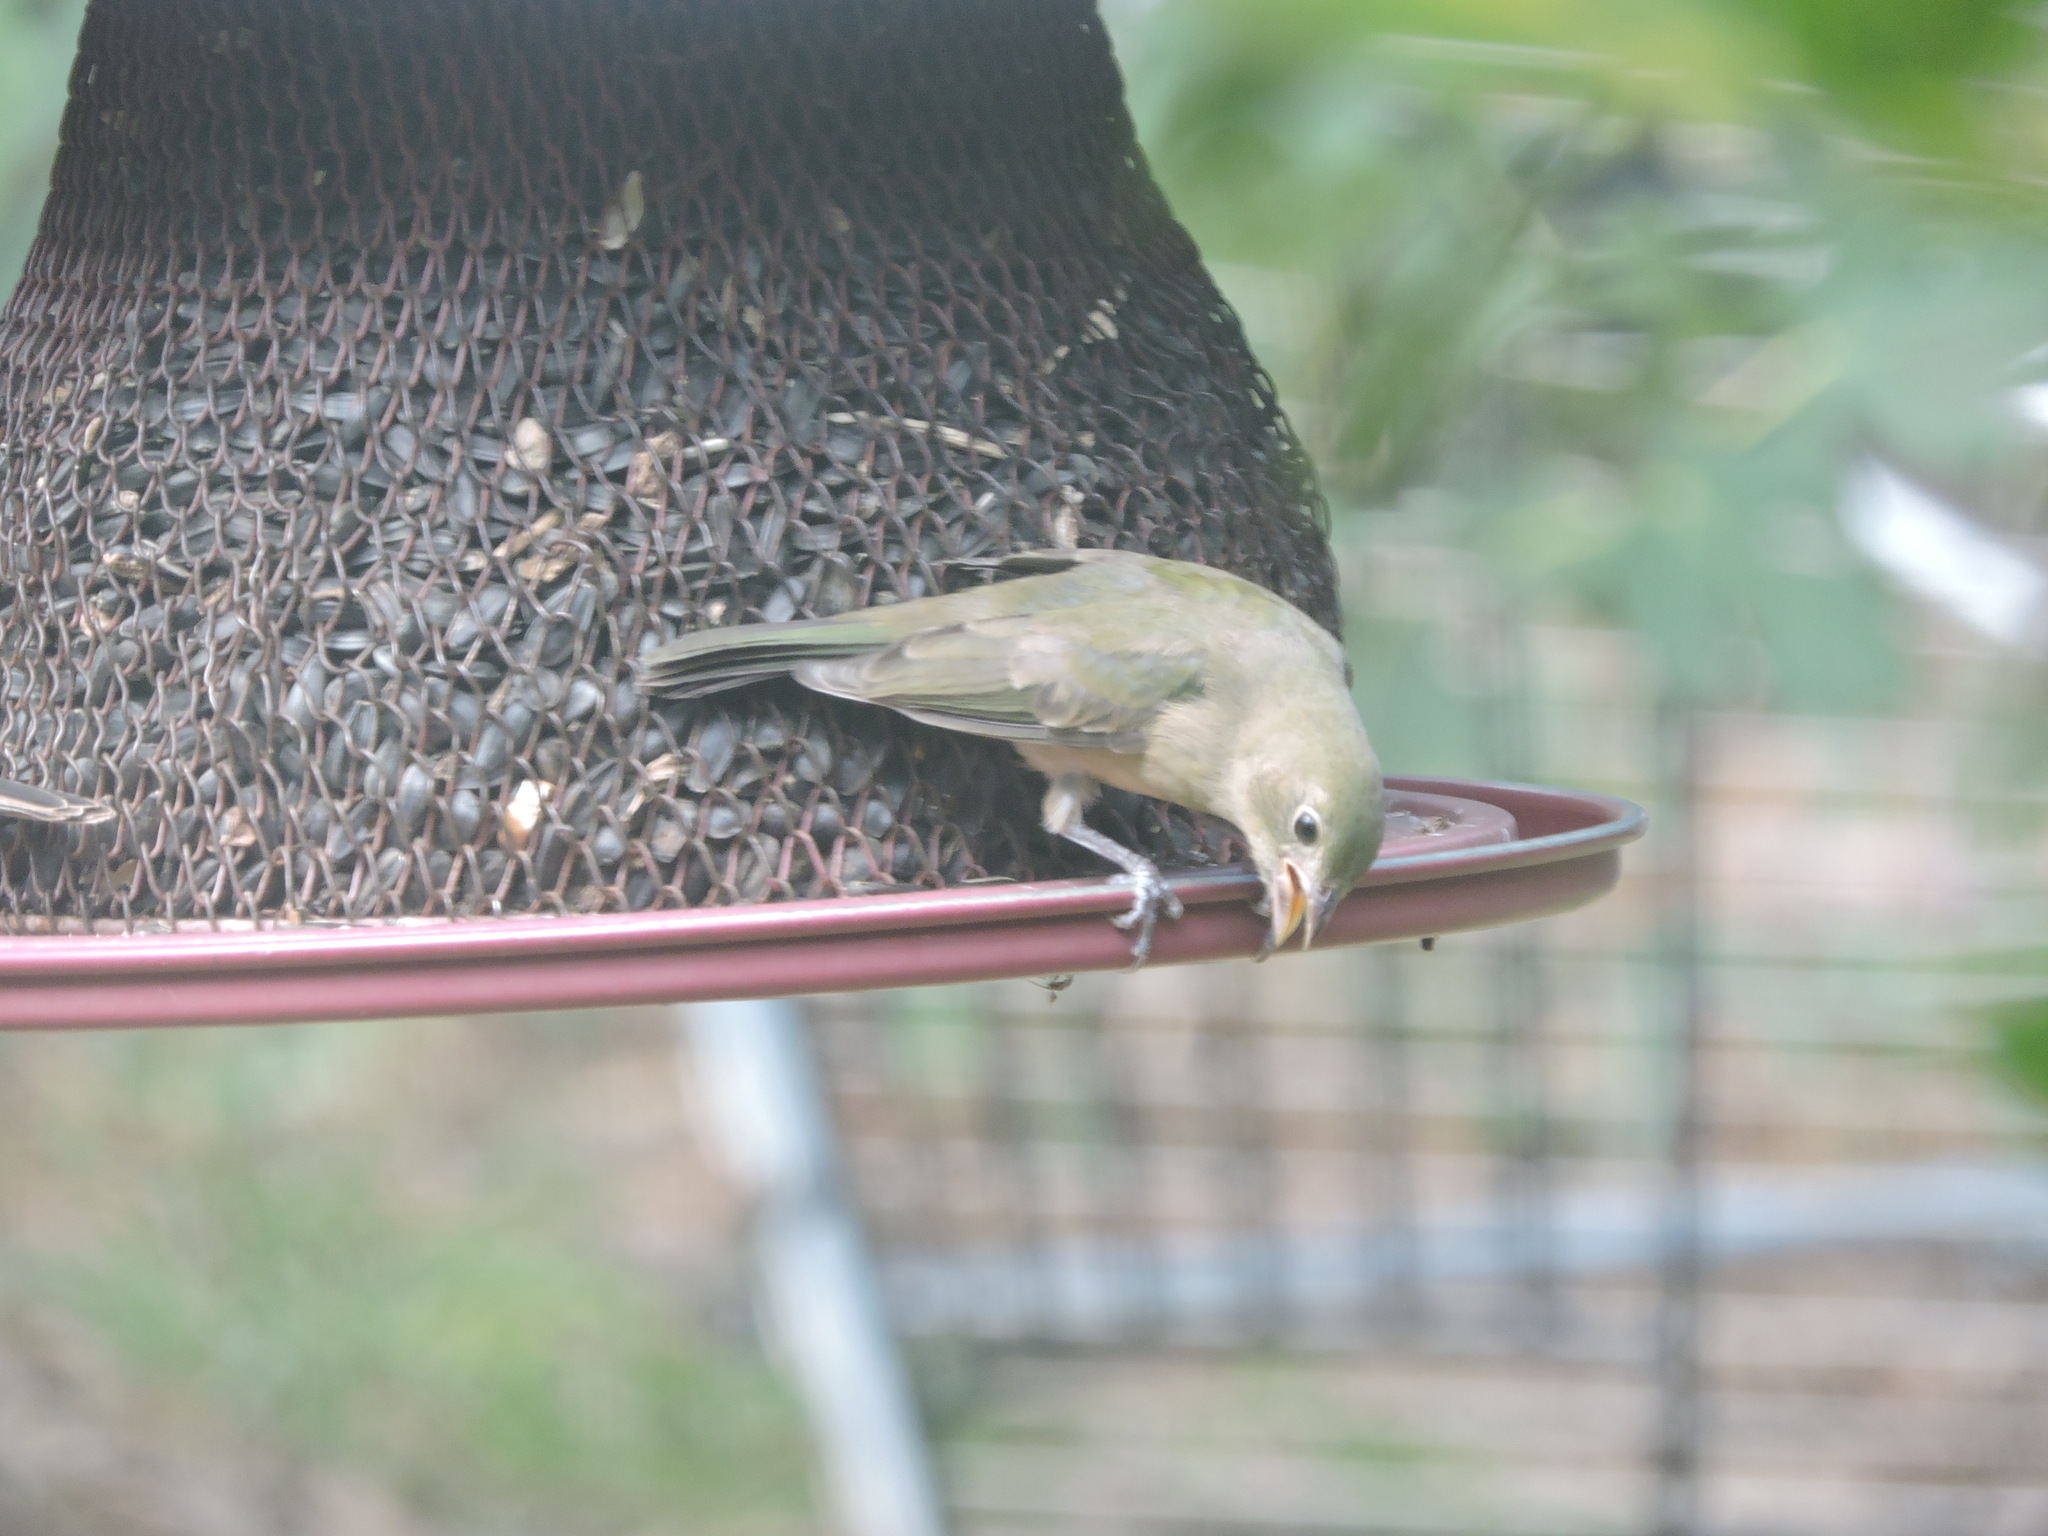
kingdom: Animalia
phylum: Chordata
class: Aves
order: Passeriformes
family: Cardinalidae
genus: Passerina
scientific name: Passerina ciris
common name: Painted bunting
